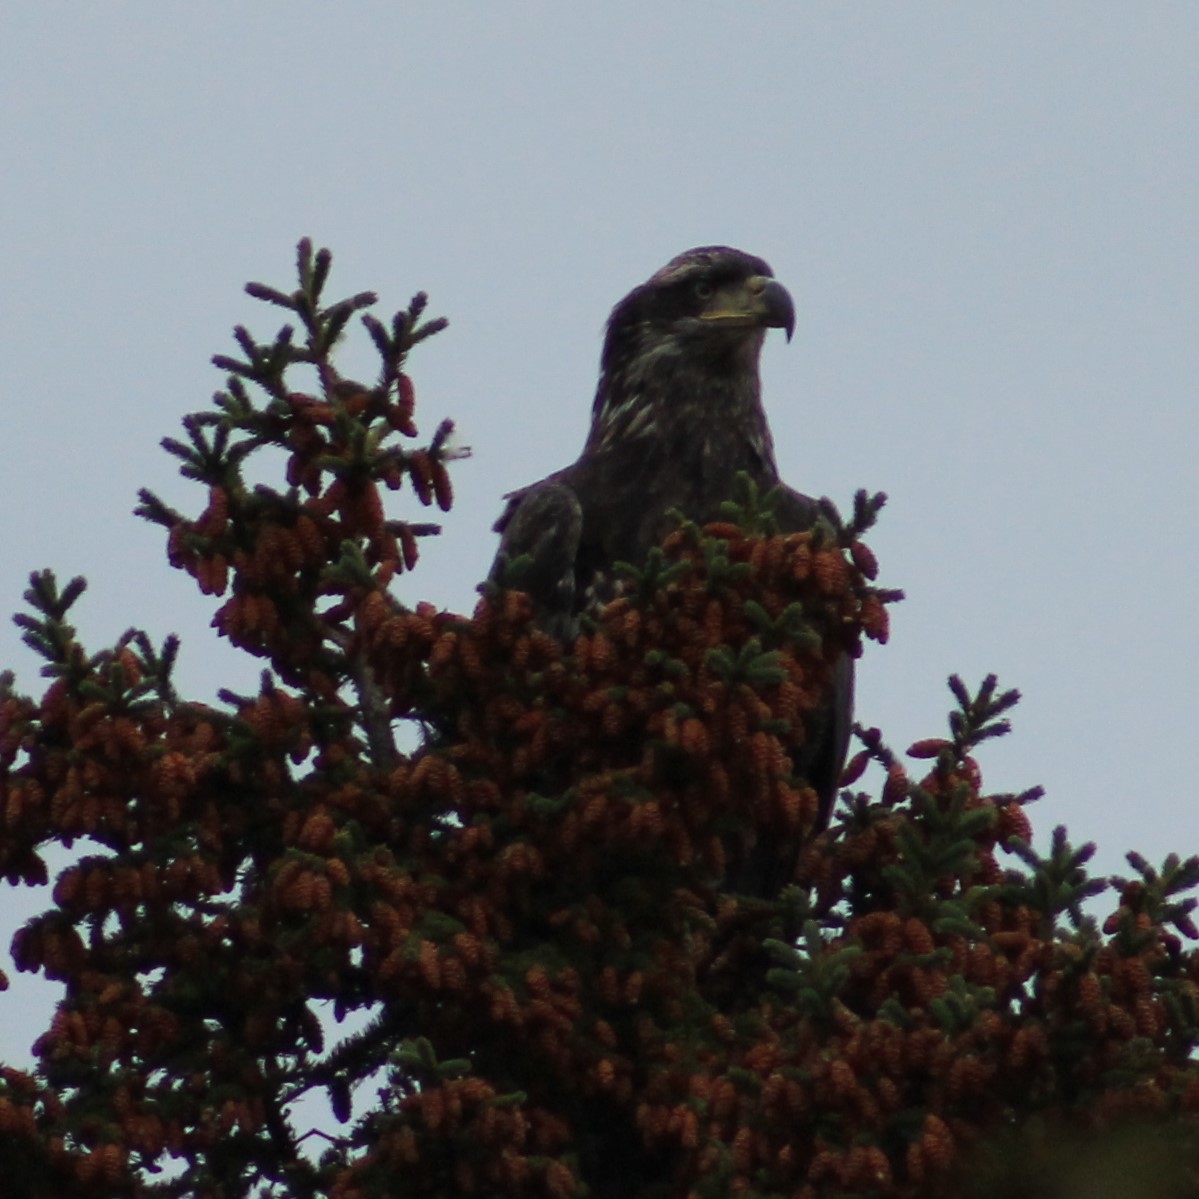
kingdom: Animalia
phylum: Chordata
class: Aves
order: Accipitriformes
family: Accipitridae
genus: Haliaeetus
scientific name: Haliaeetus leucocephalus
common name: Bald eagle
